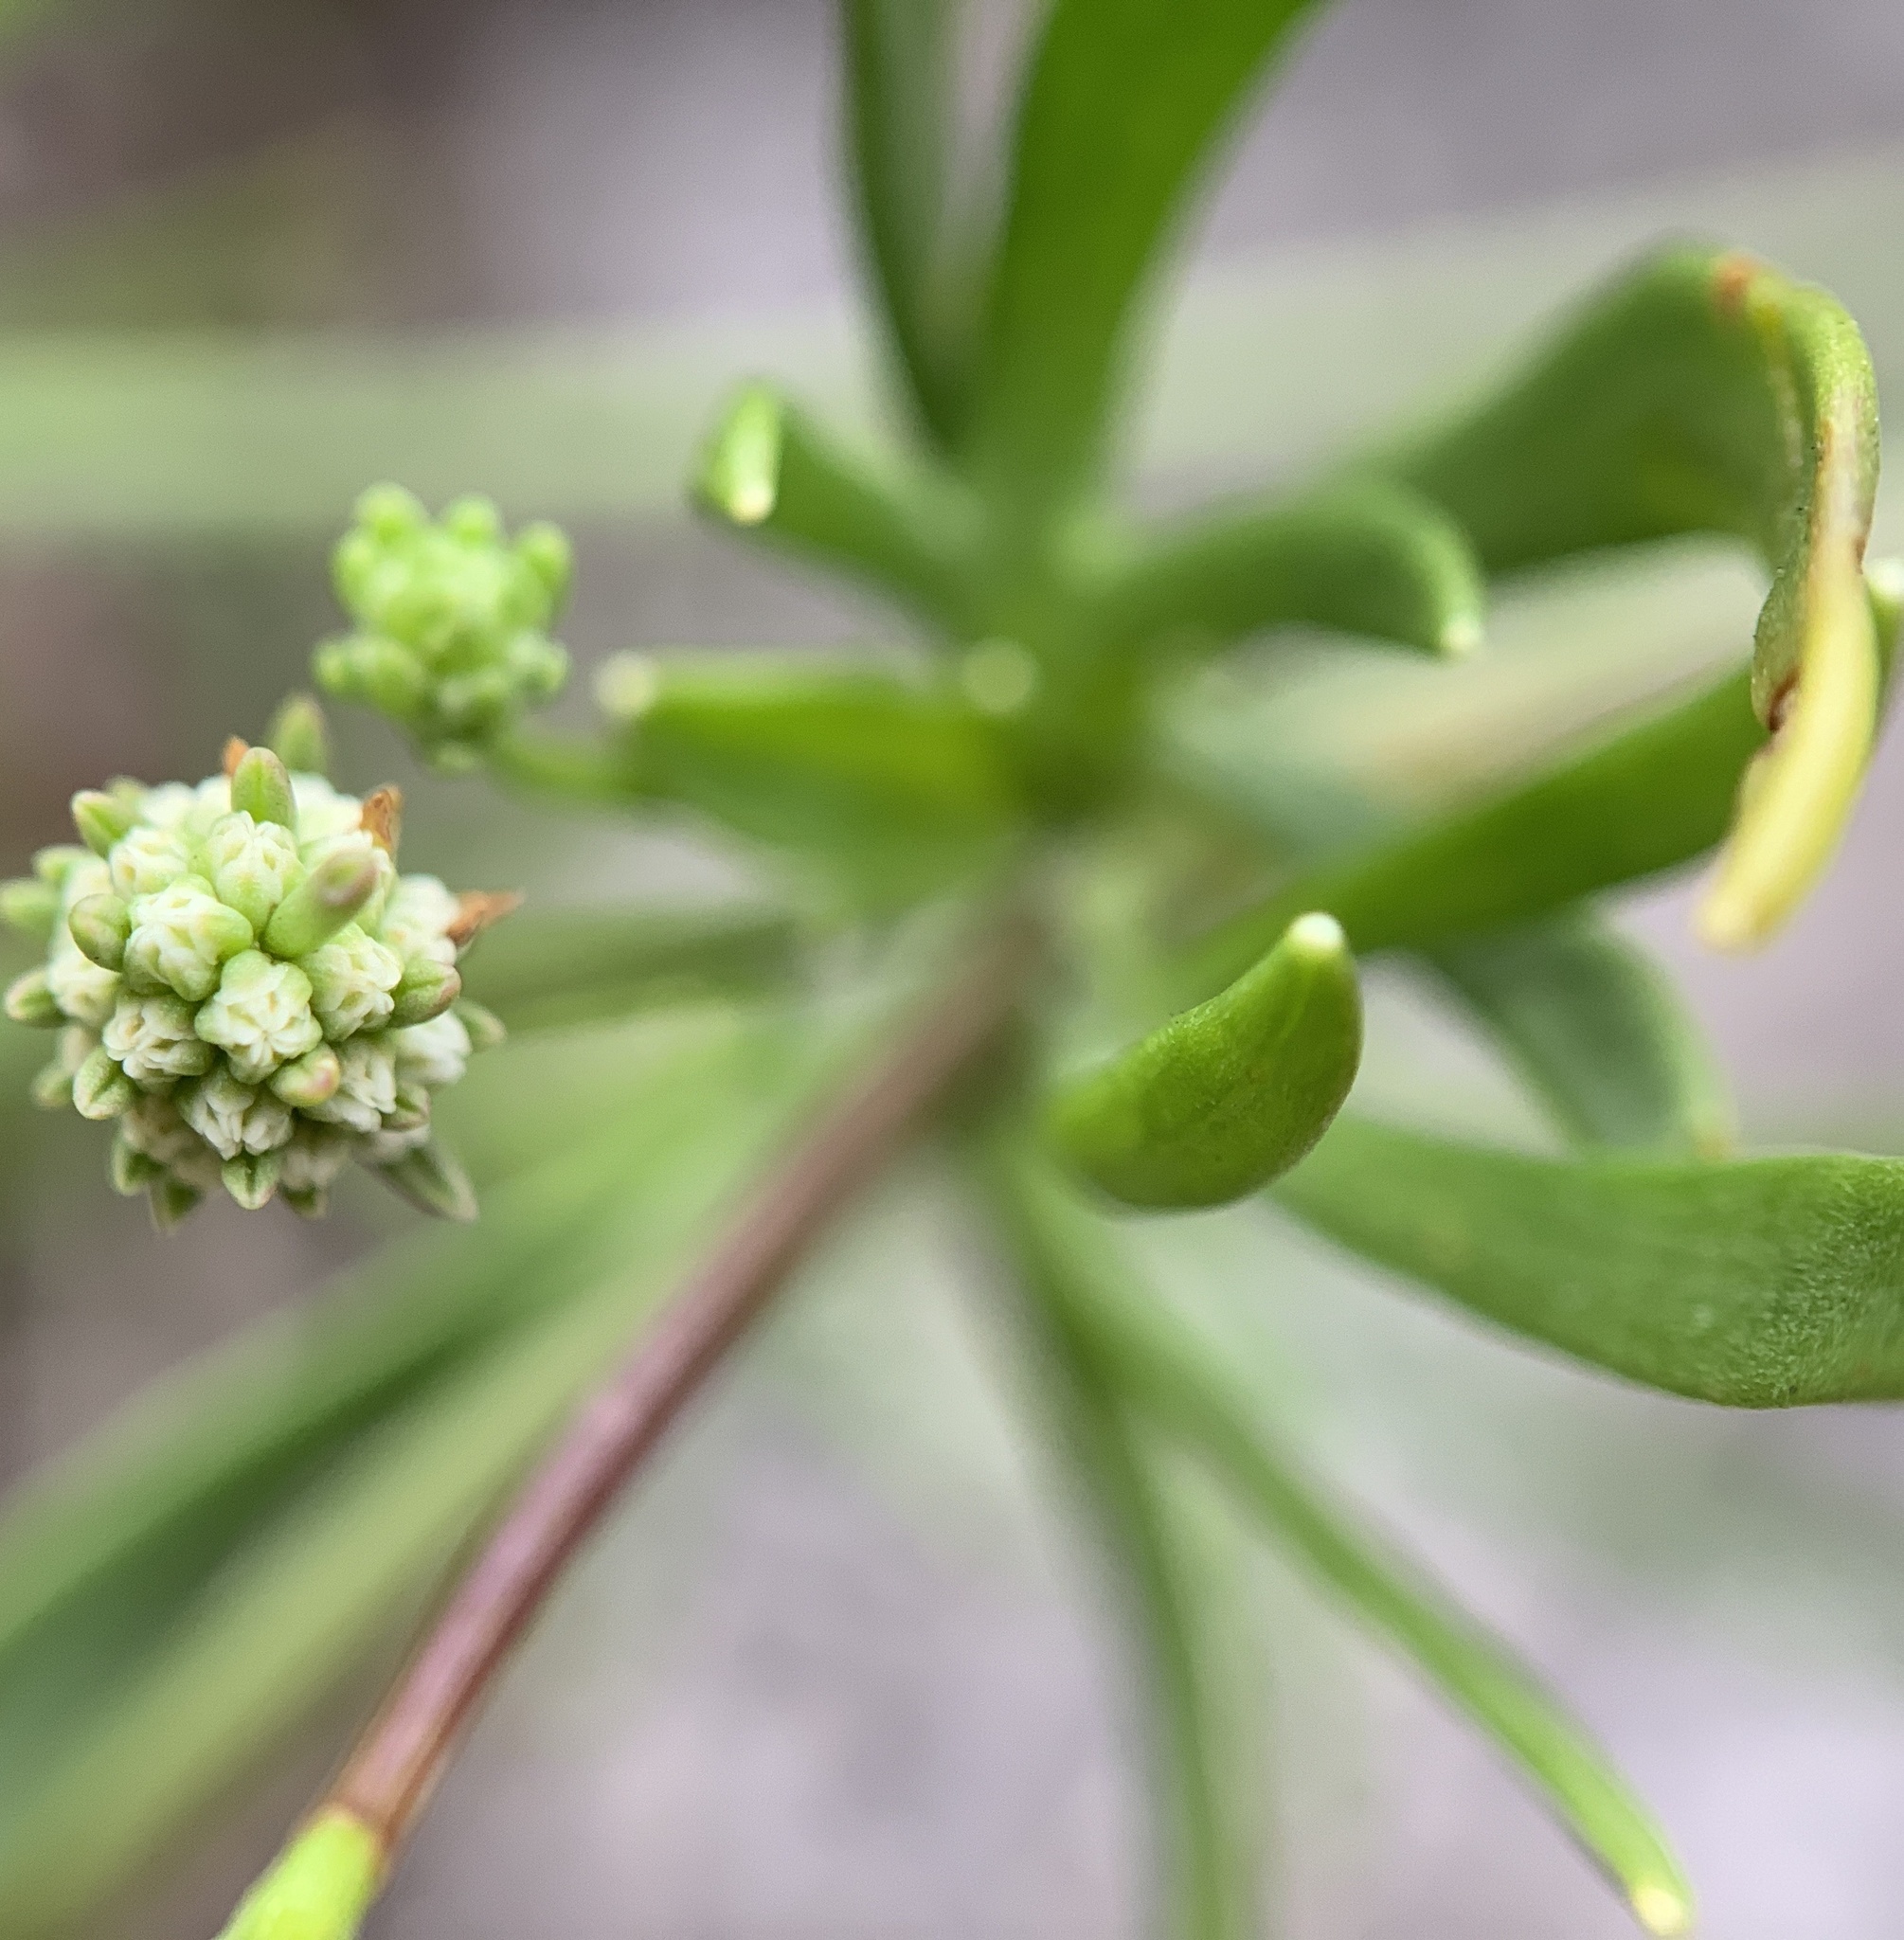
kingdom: Plantae
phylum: Tracheophyta
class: Magnoliopsida
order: Apiales
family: Apiaceae
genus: Eryngium
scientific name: Eryngium baldwinii
